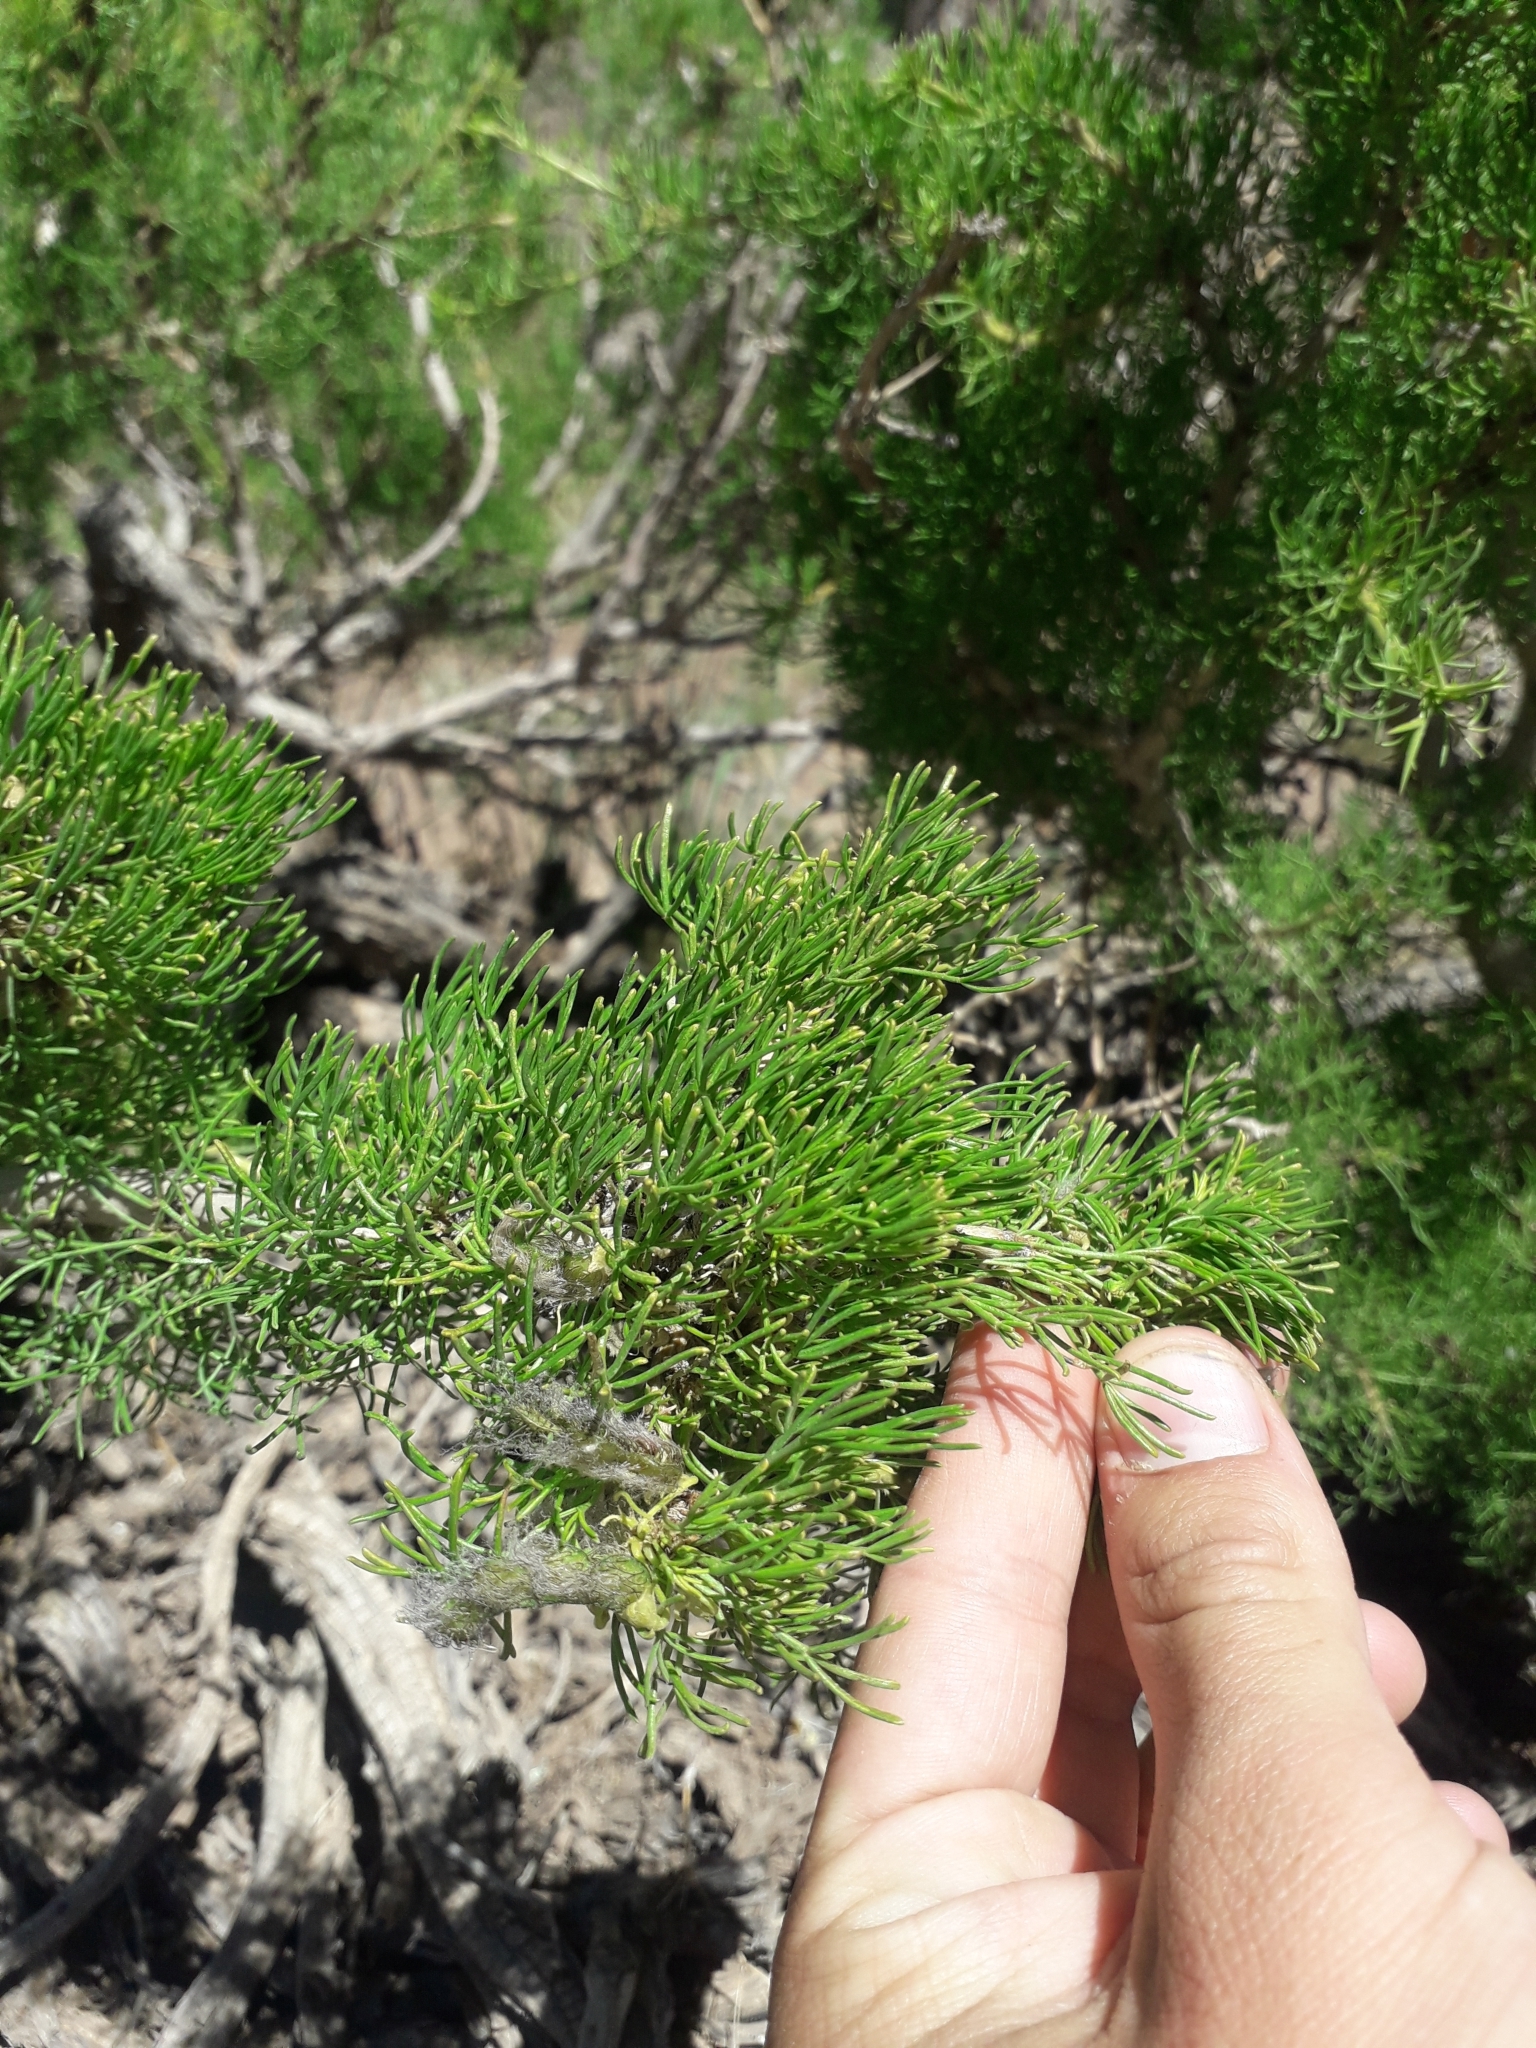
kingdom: Plantae
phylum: Tracheophyta
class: Magnoliopsida
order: Fabales
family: Fabaceae
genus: Adesmia
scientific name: Adesmia pinifolia
